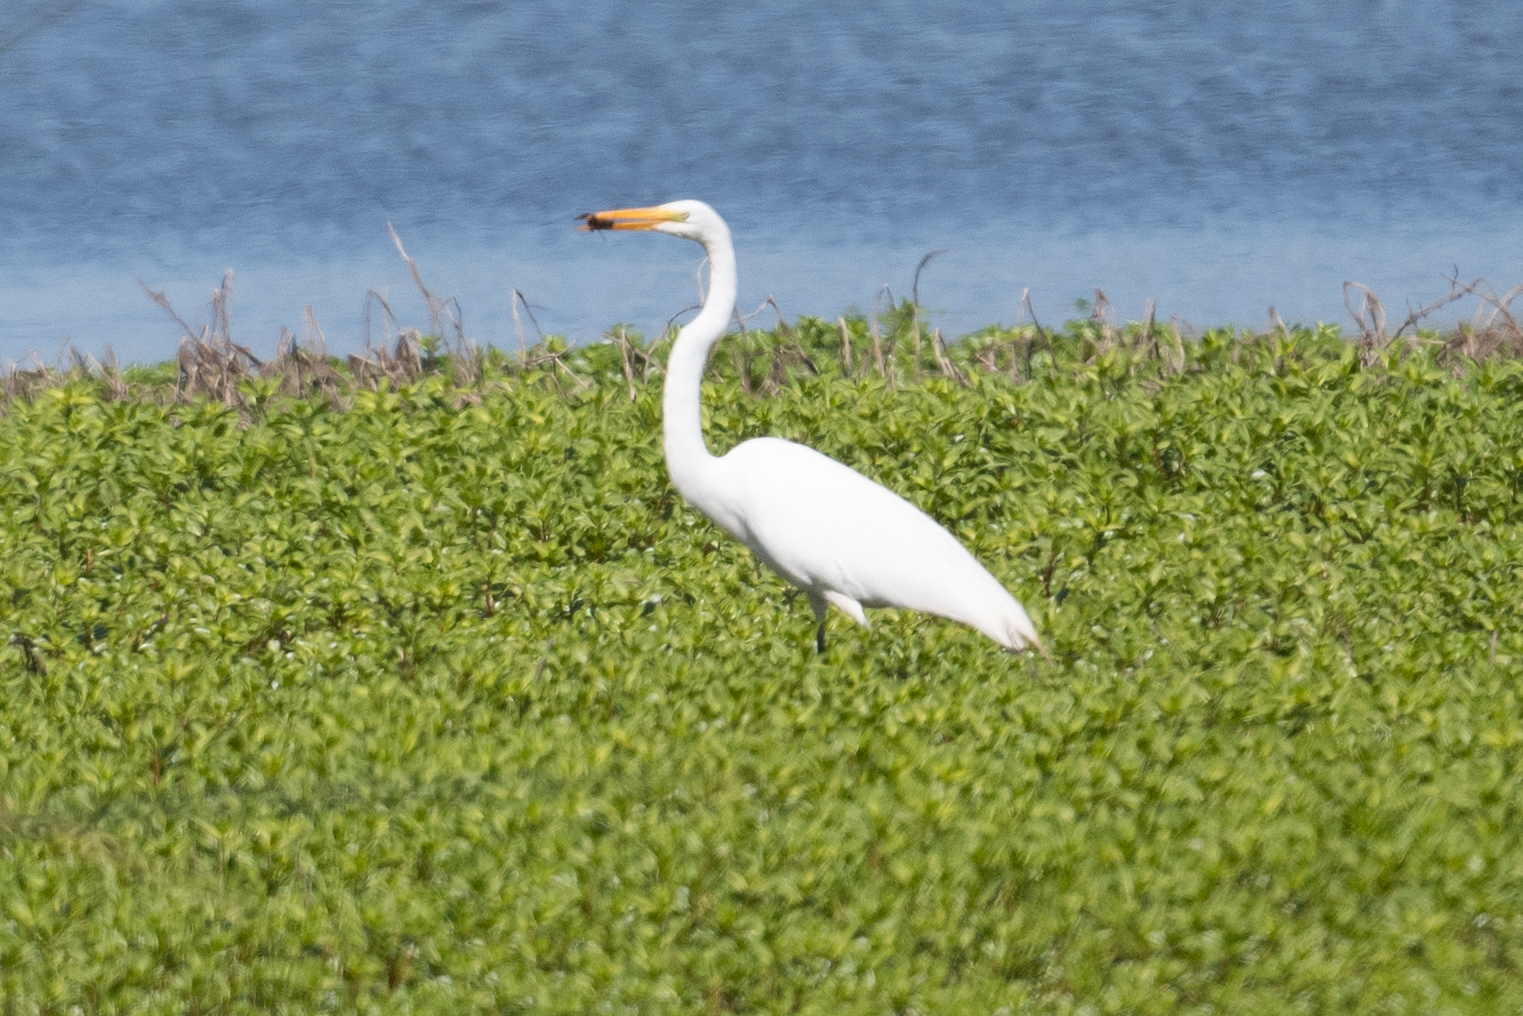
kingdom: Animalia
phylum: Chordata
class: Aves
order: Pelecaniformes
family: Ardeidae
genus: Ardea
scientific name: Ardea alba
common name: Great egret
